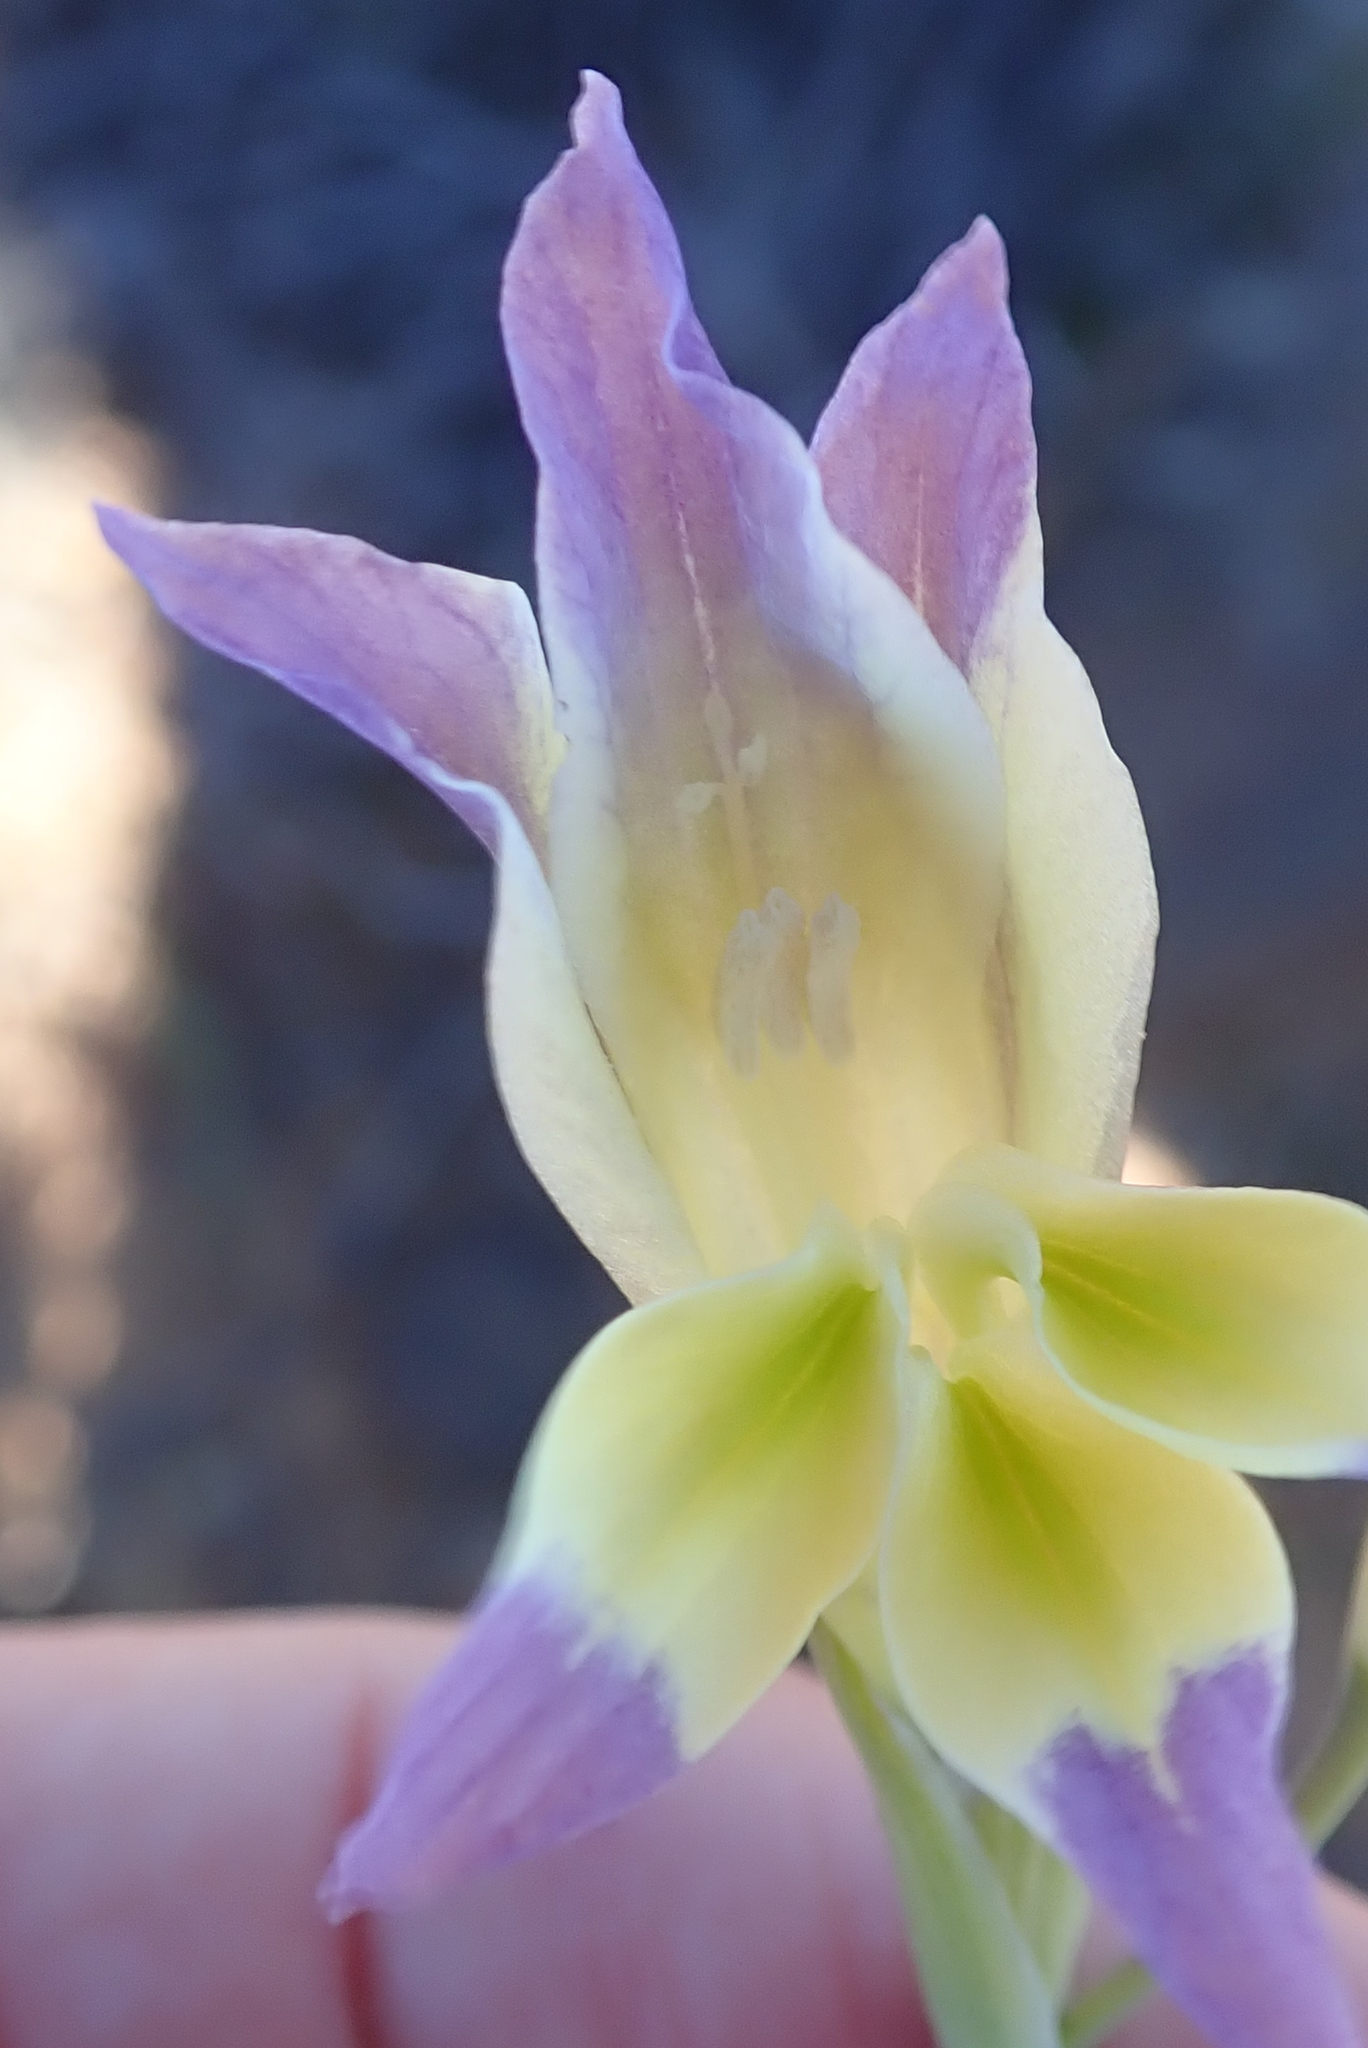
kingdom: Plantae
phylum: Tracheophyta
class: Liliopsida
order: Asparagales
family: Iridaceae
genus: Gladiolus
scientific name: Gladiolus venustus
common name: Purple kalkoentjie
